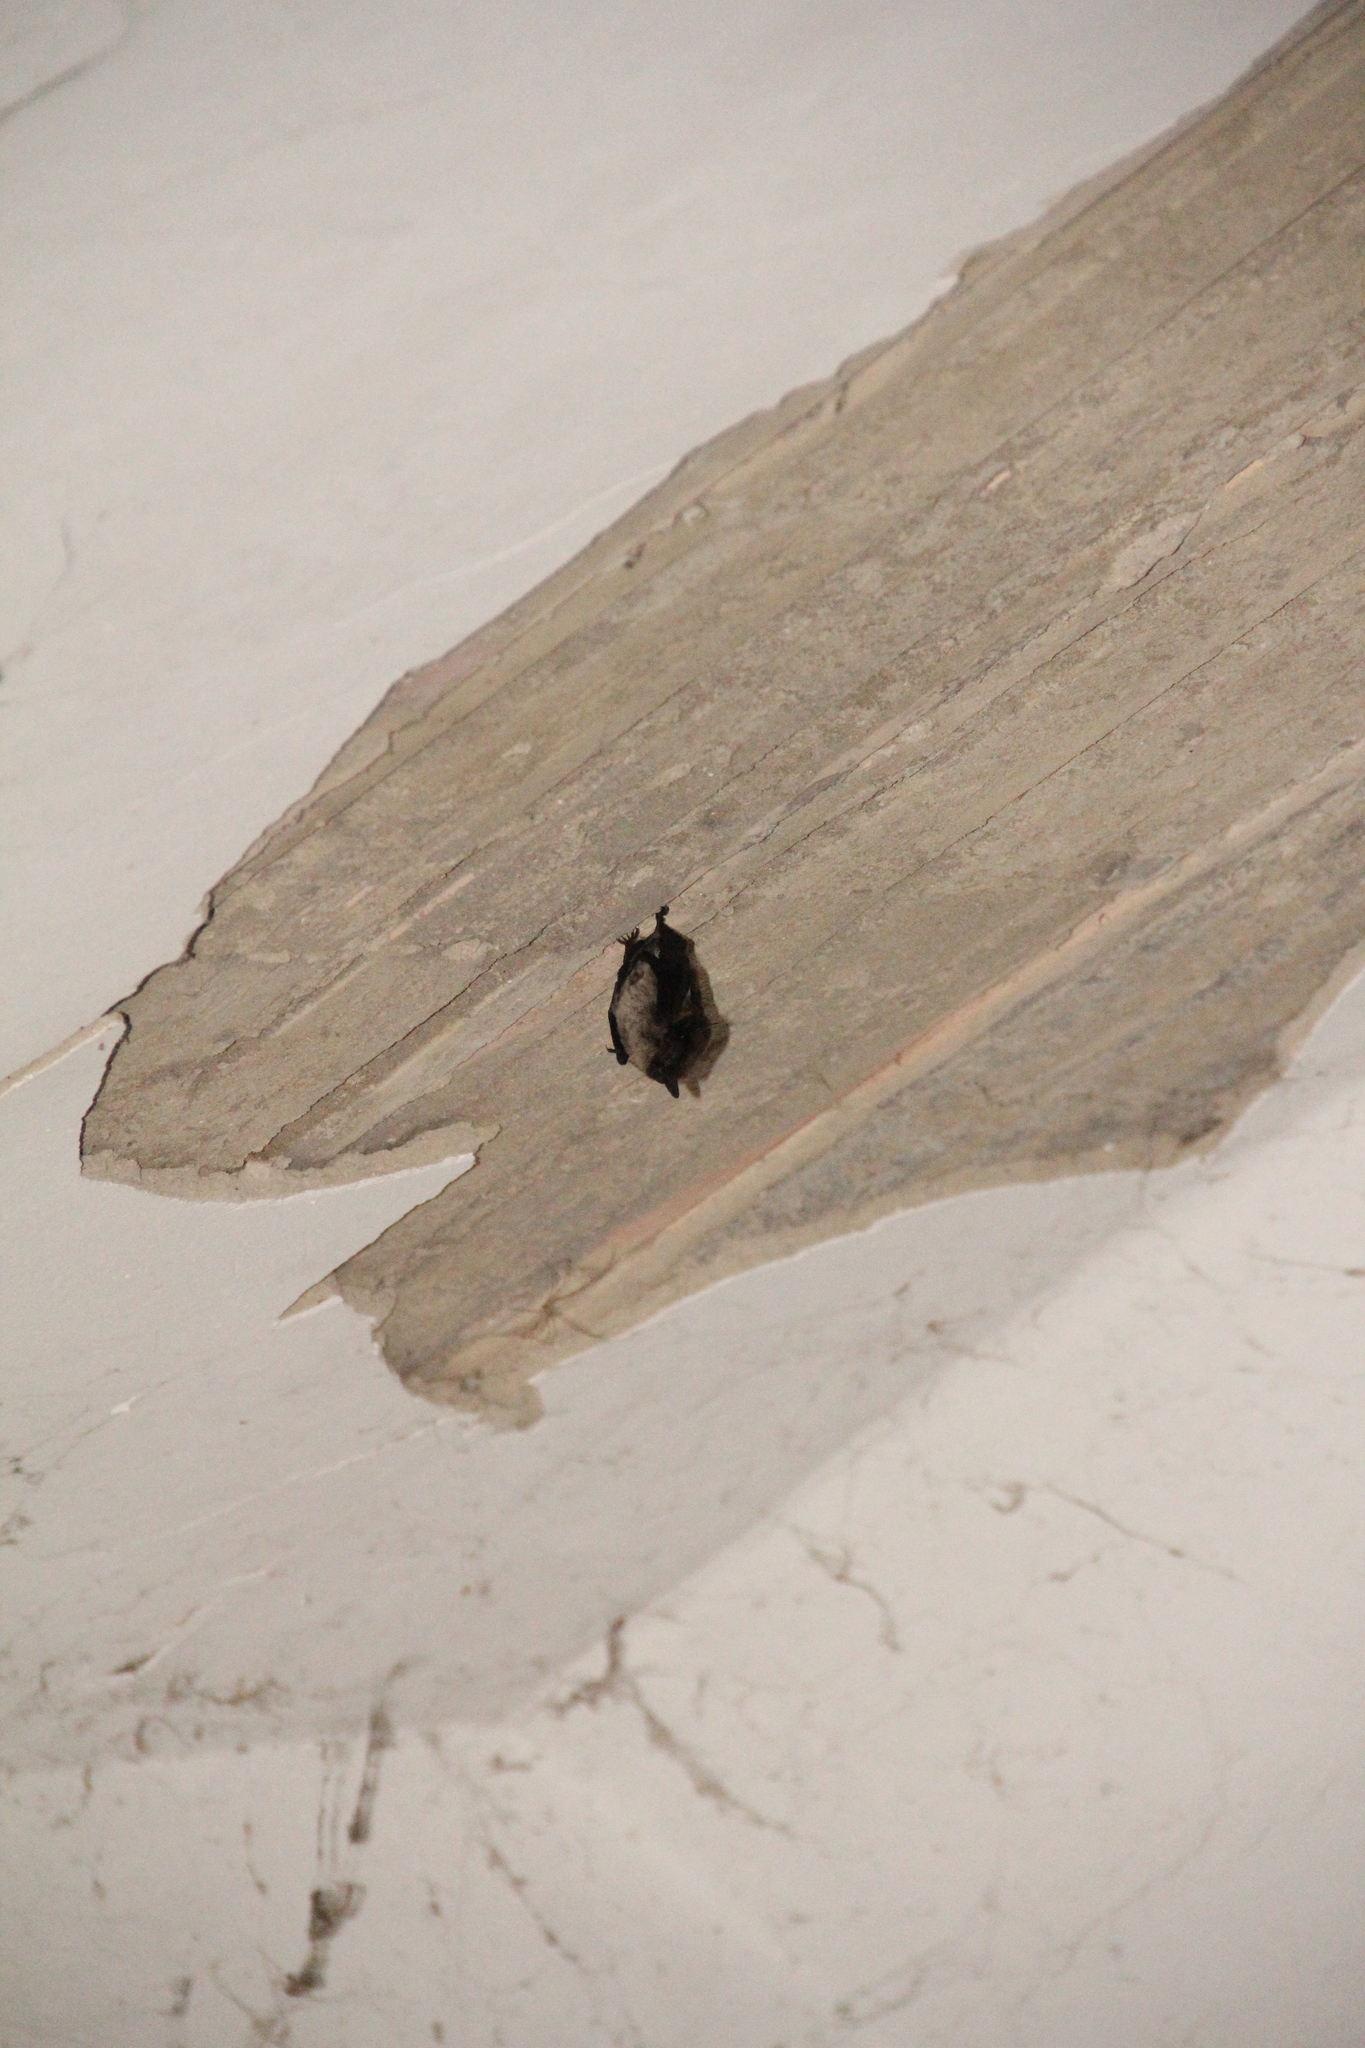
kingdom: Animalia
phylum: Chordata
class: Mammalia
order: Chiroptera
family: Vespertilionidae
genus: Hypsugo
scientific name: Hypsugo savii
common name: Savi's pipistrelle
